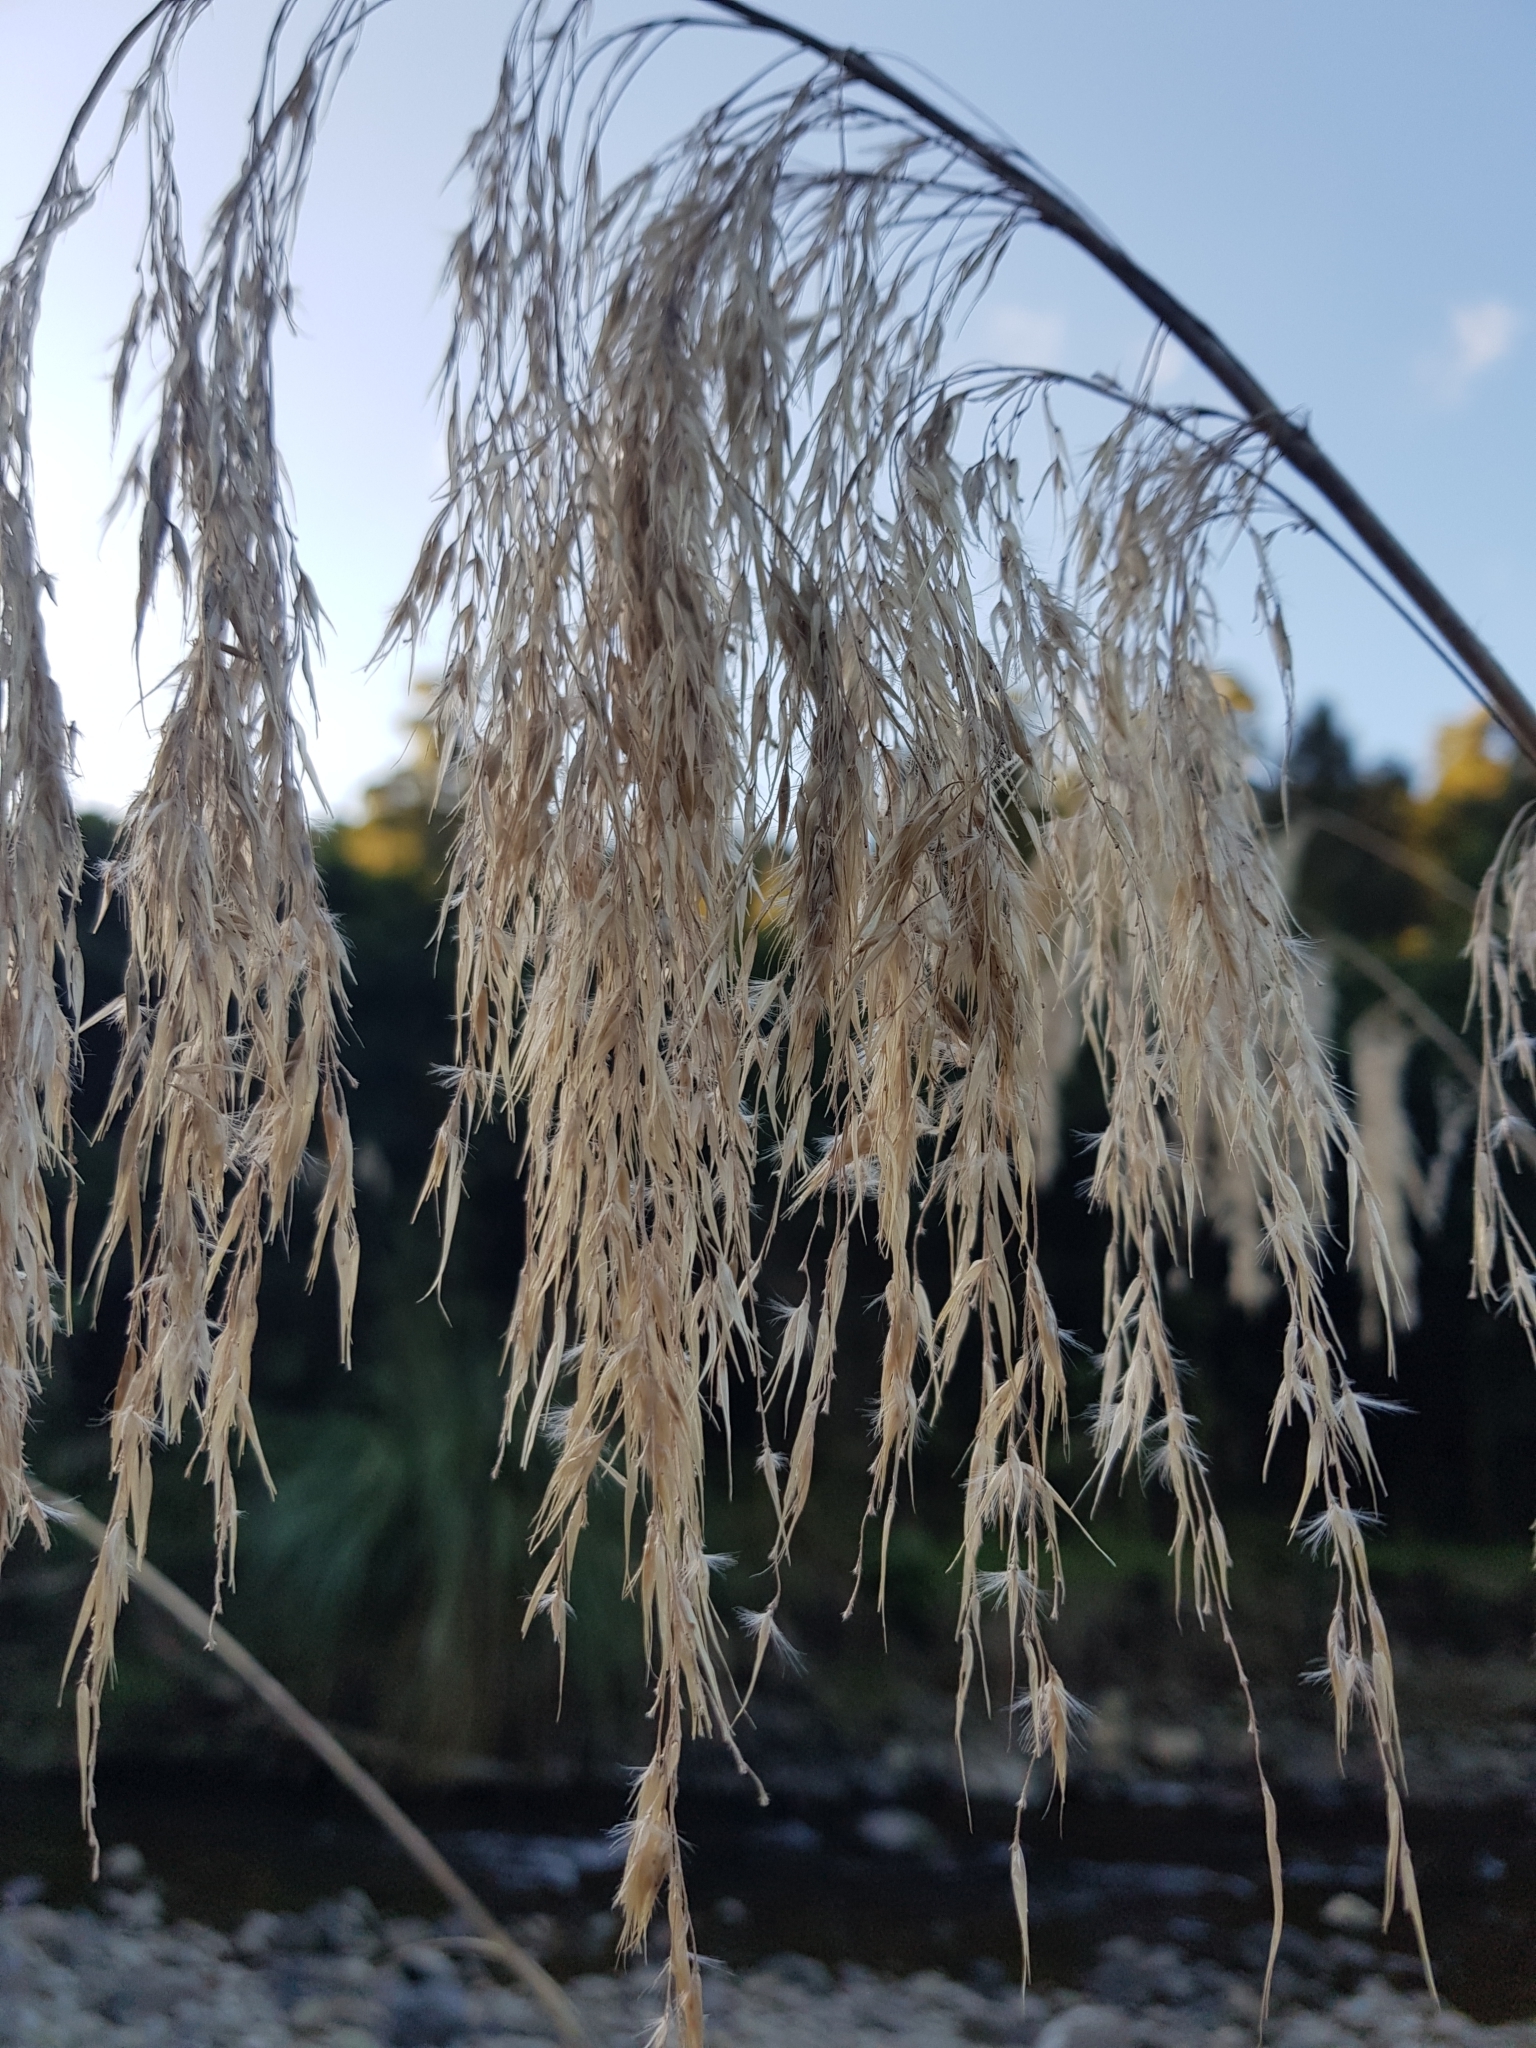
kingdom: Plantae
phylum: Tracheophyta
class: Liliopsida
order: Poales
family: Poaceae
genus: Austroderia
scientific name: Austroderia fulvida
